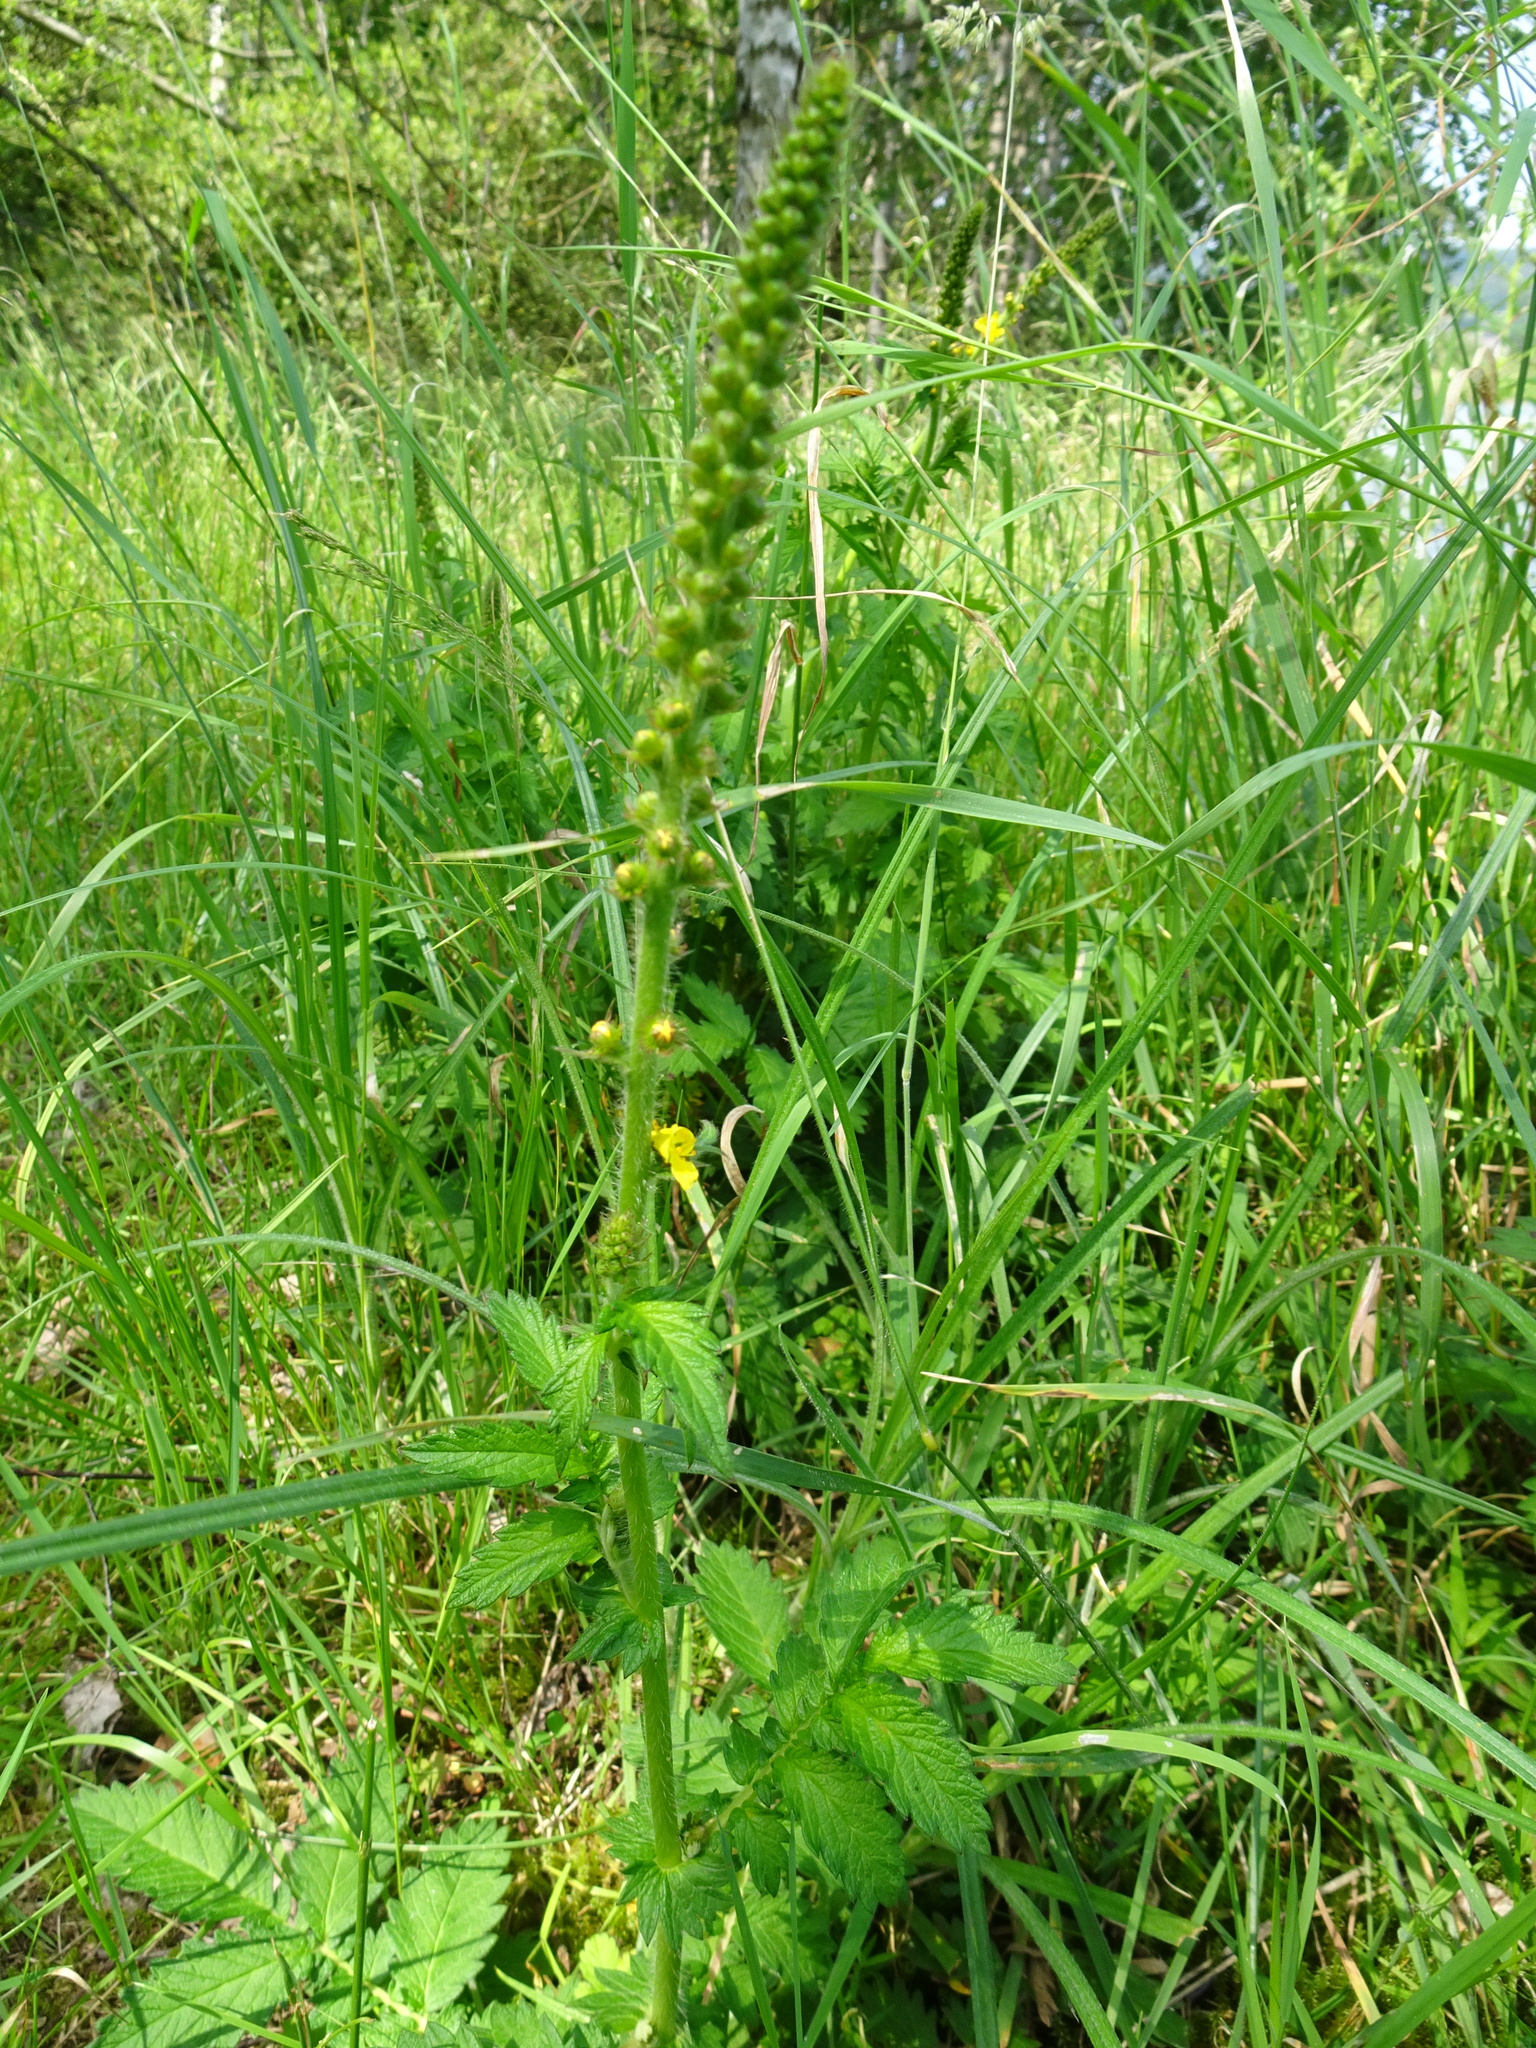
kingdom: Plantae
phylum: Tracheophyta
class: Magnoliopsida
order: Rosales
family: Rosaceae
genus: Agrimonia
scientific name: Agrimonia eupatoria
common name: Agrimony
